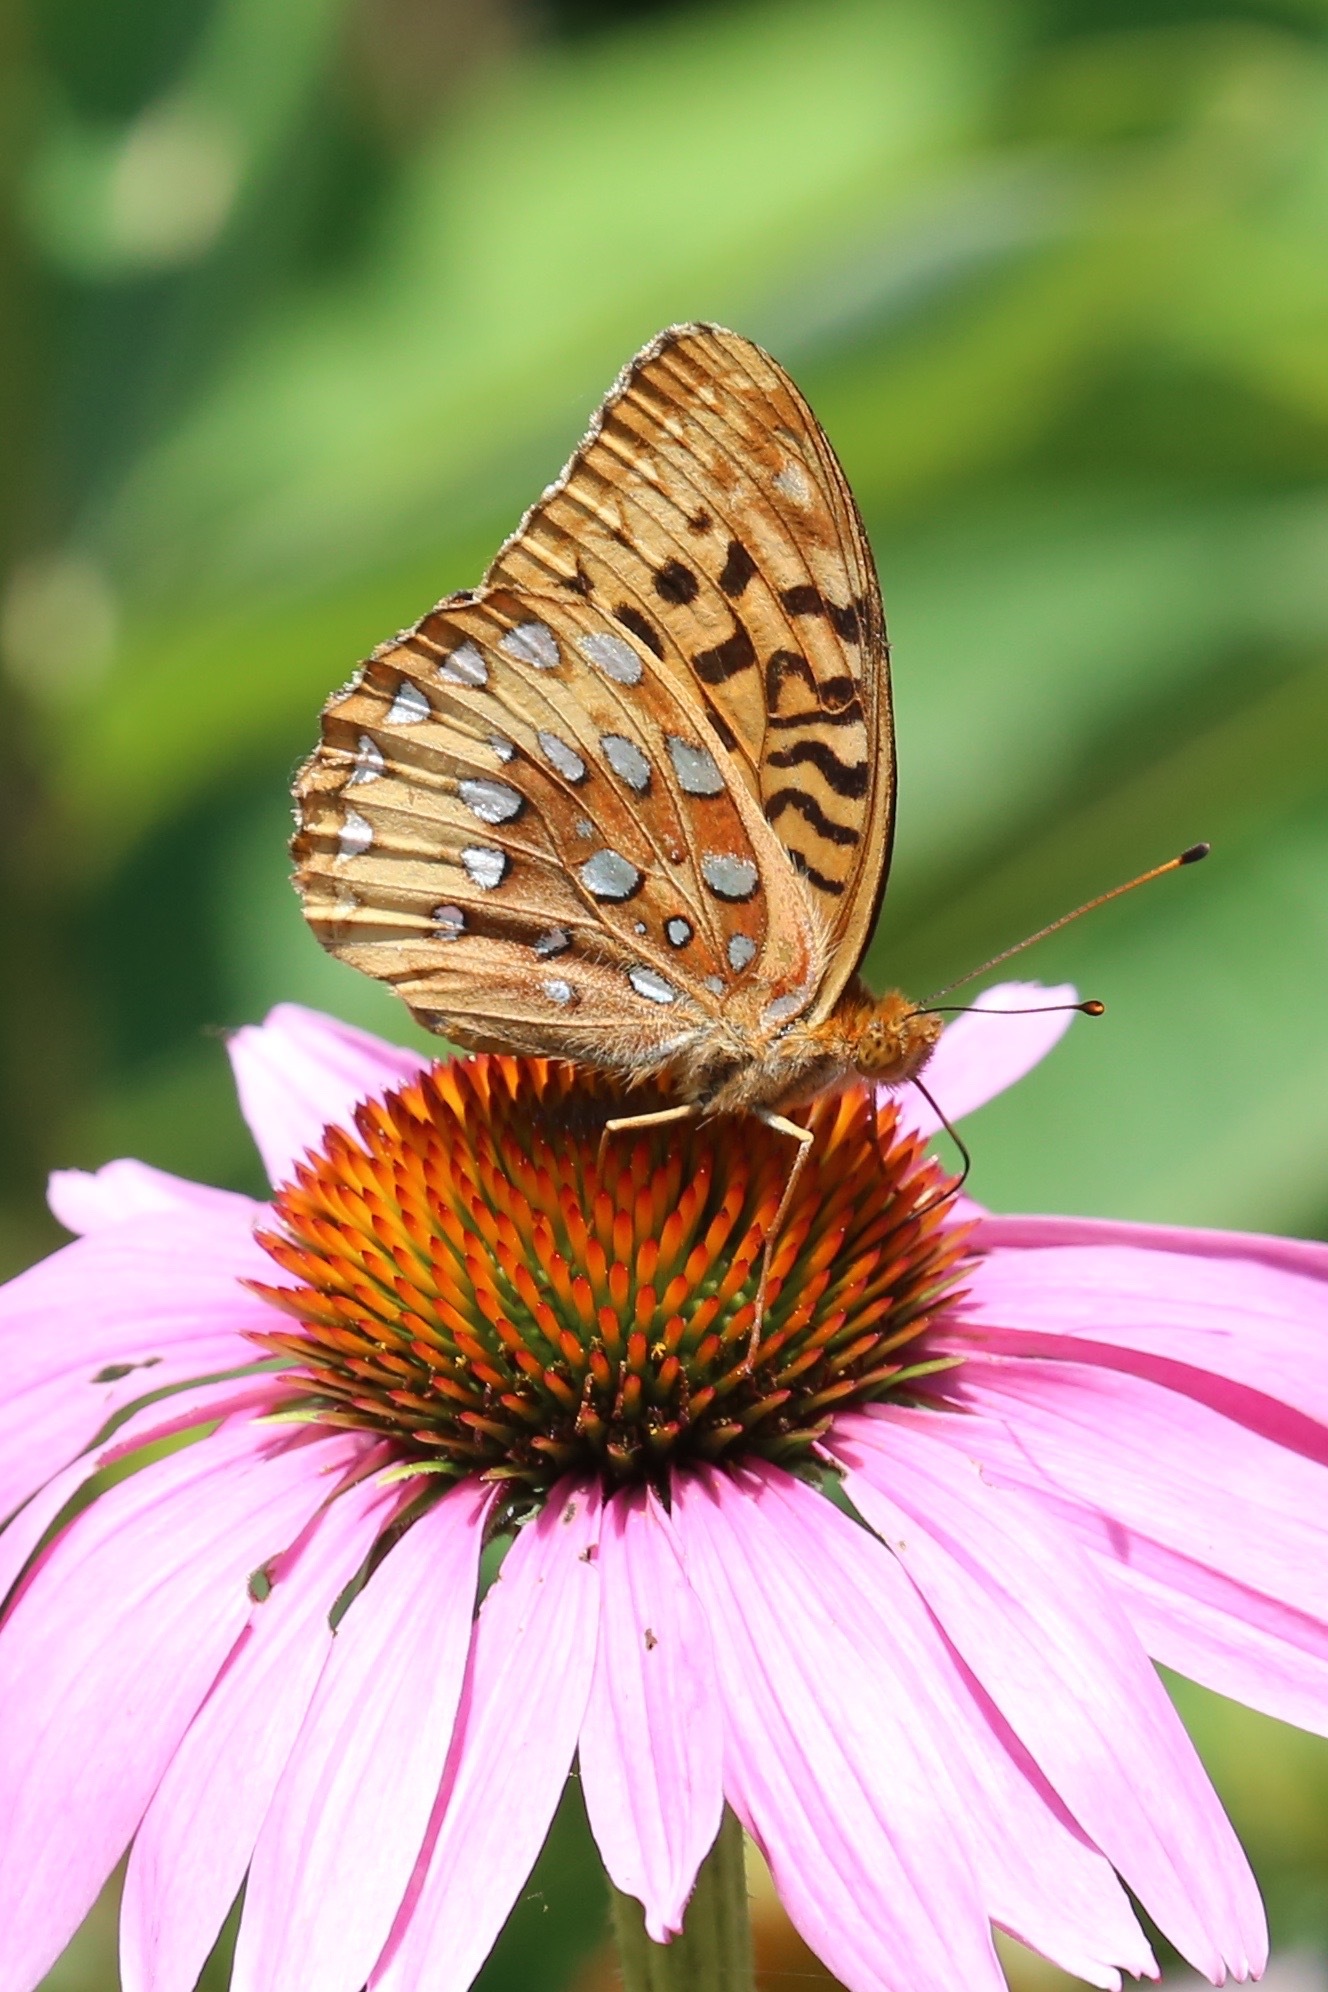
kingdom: Animalia
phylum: Arthropoda
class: Insecta
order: Lepidoptera
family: Nymphalidae
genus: Speyeria
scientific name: Speyeria cybele
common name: Great spangled fritillary
